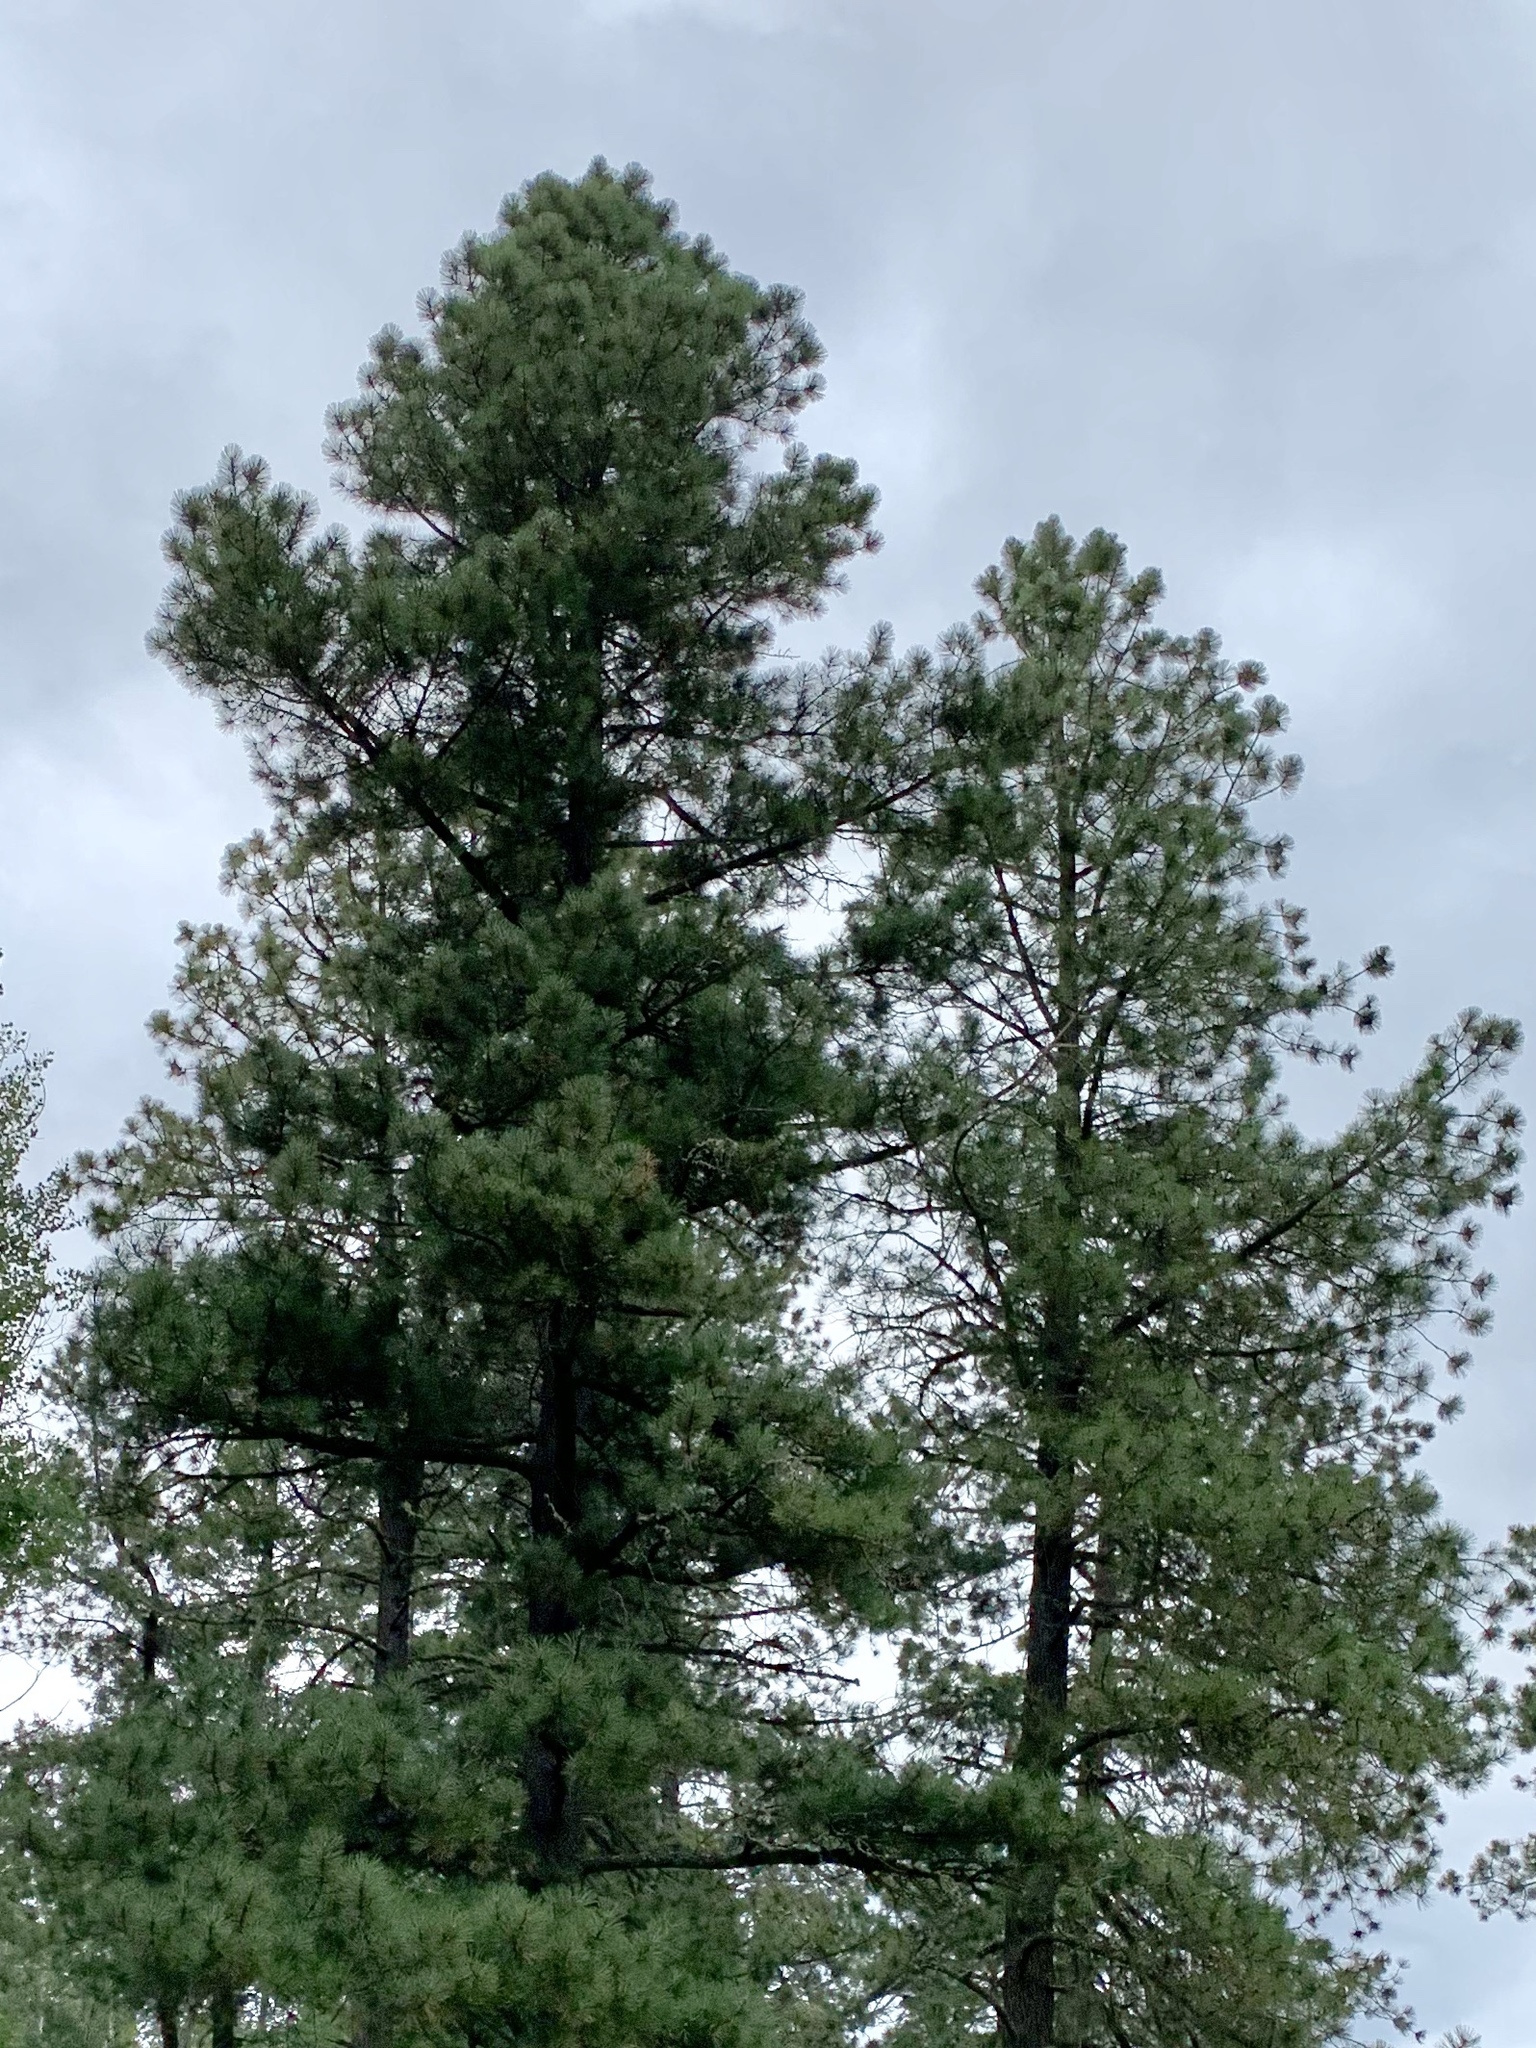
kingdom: Plantae
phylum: Tracheophyta
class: Pinopsida
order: Pinales
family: Pinaceae
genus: Pinus
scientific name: Pinus ponderosa
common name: Western yellow-pine
